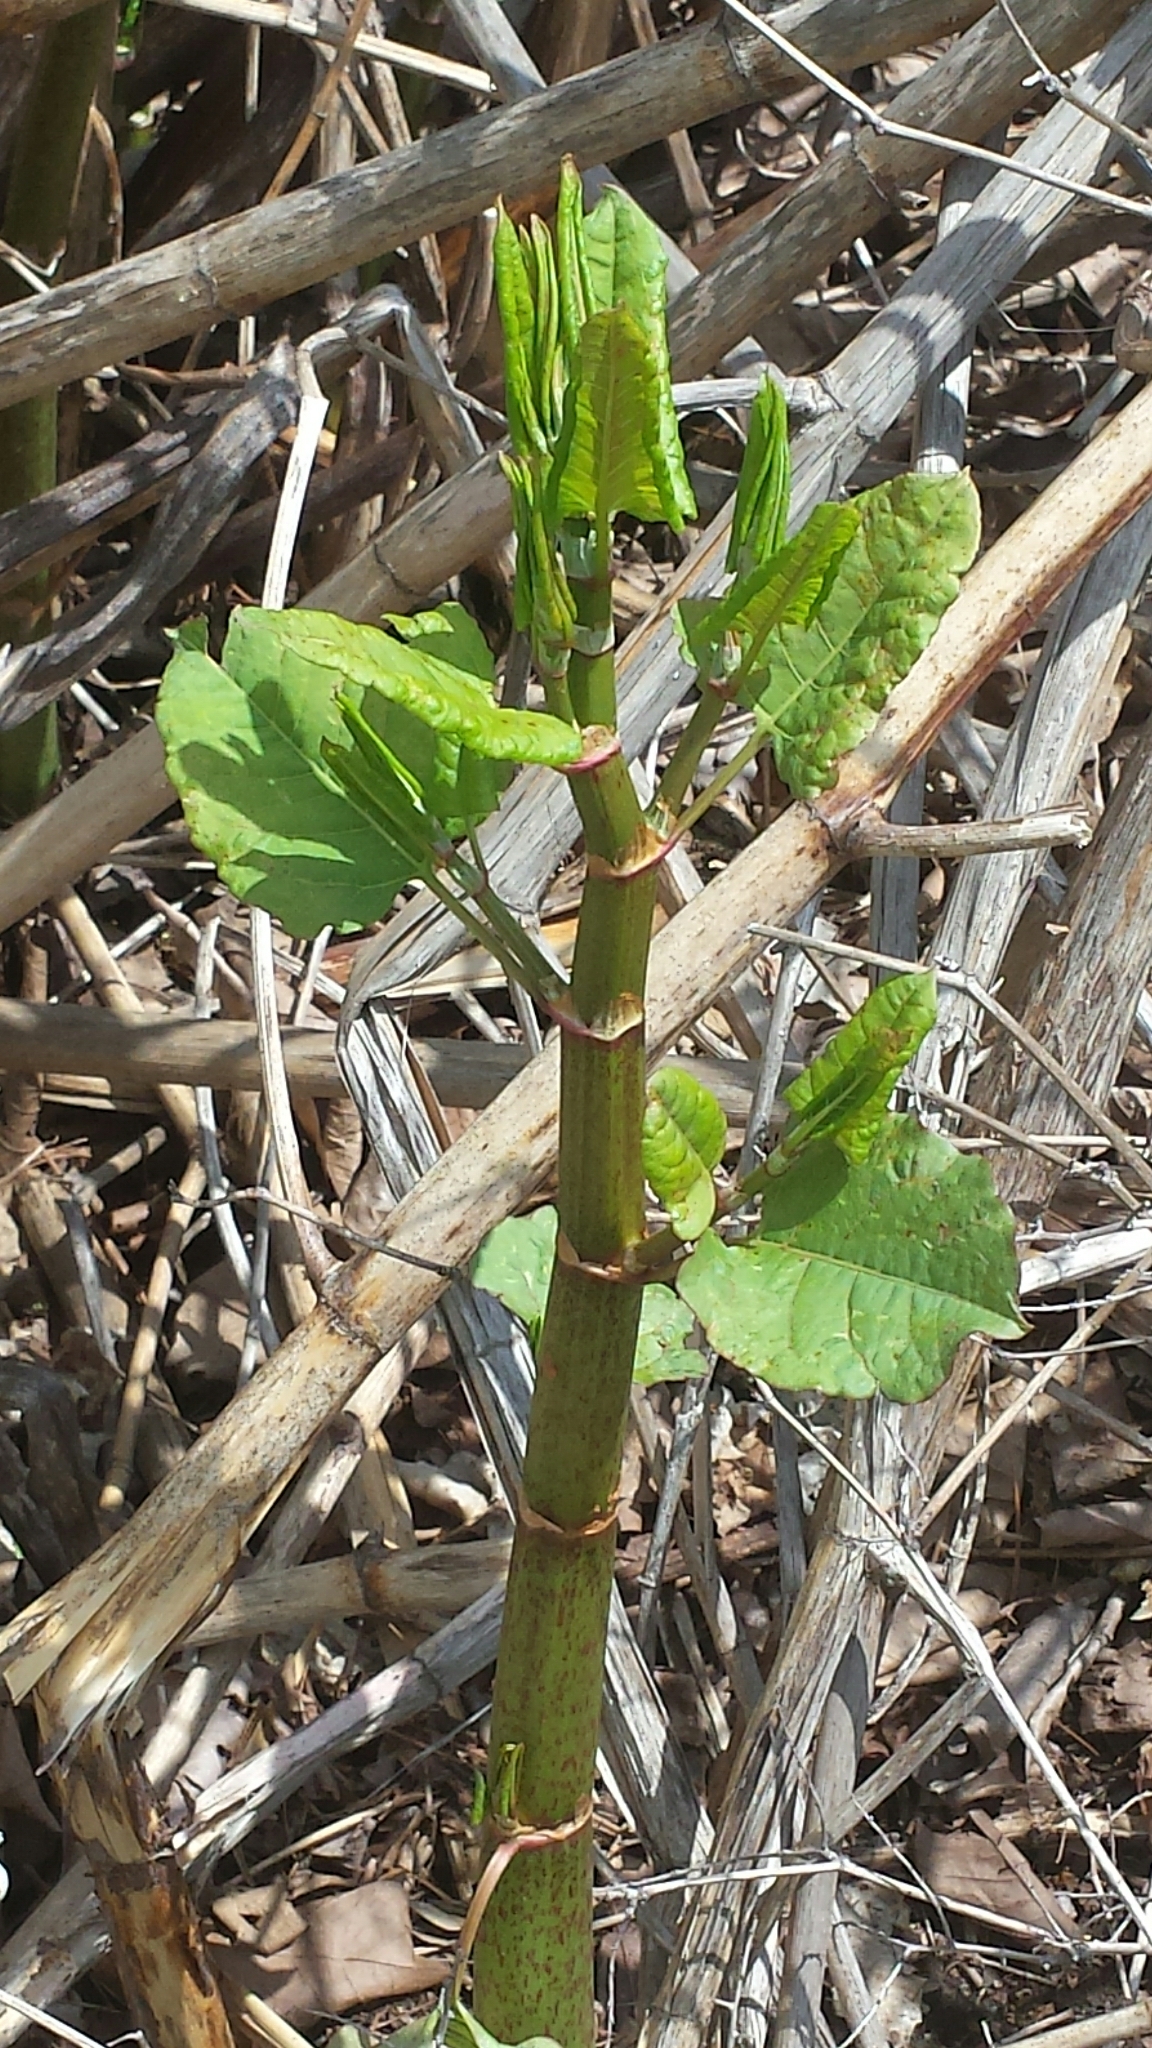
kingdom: Plantae
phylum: Tracheophyta
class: Magnoliopsida
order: Caryophyllales
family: Polygonaceae
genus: Reynoutria
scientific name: Reynoutria japonica
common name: Japanese knotweed
